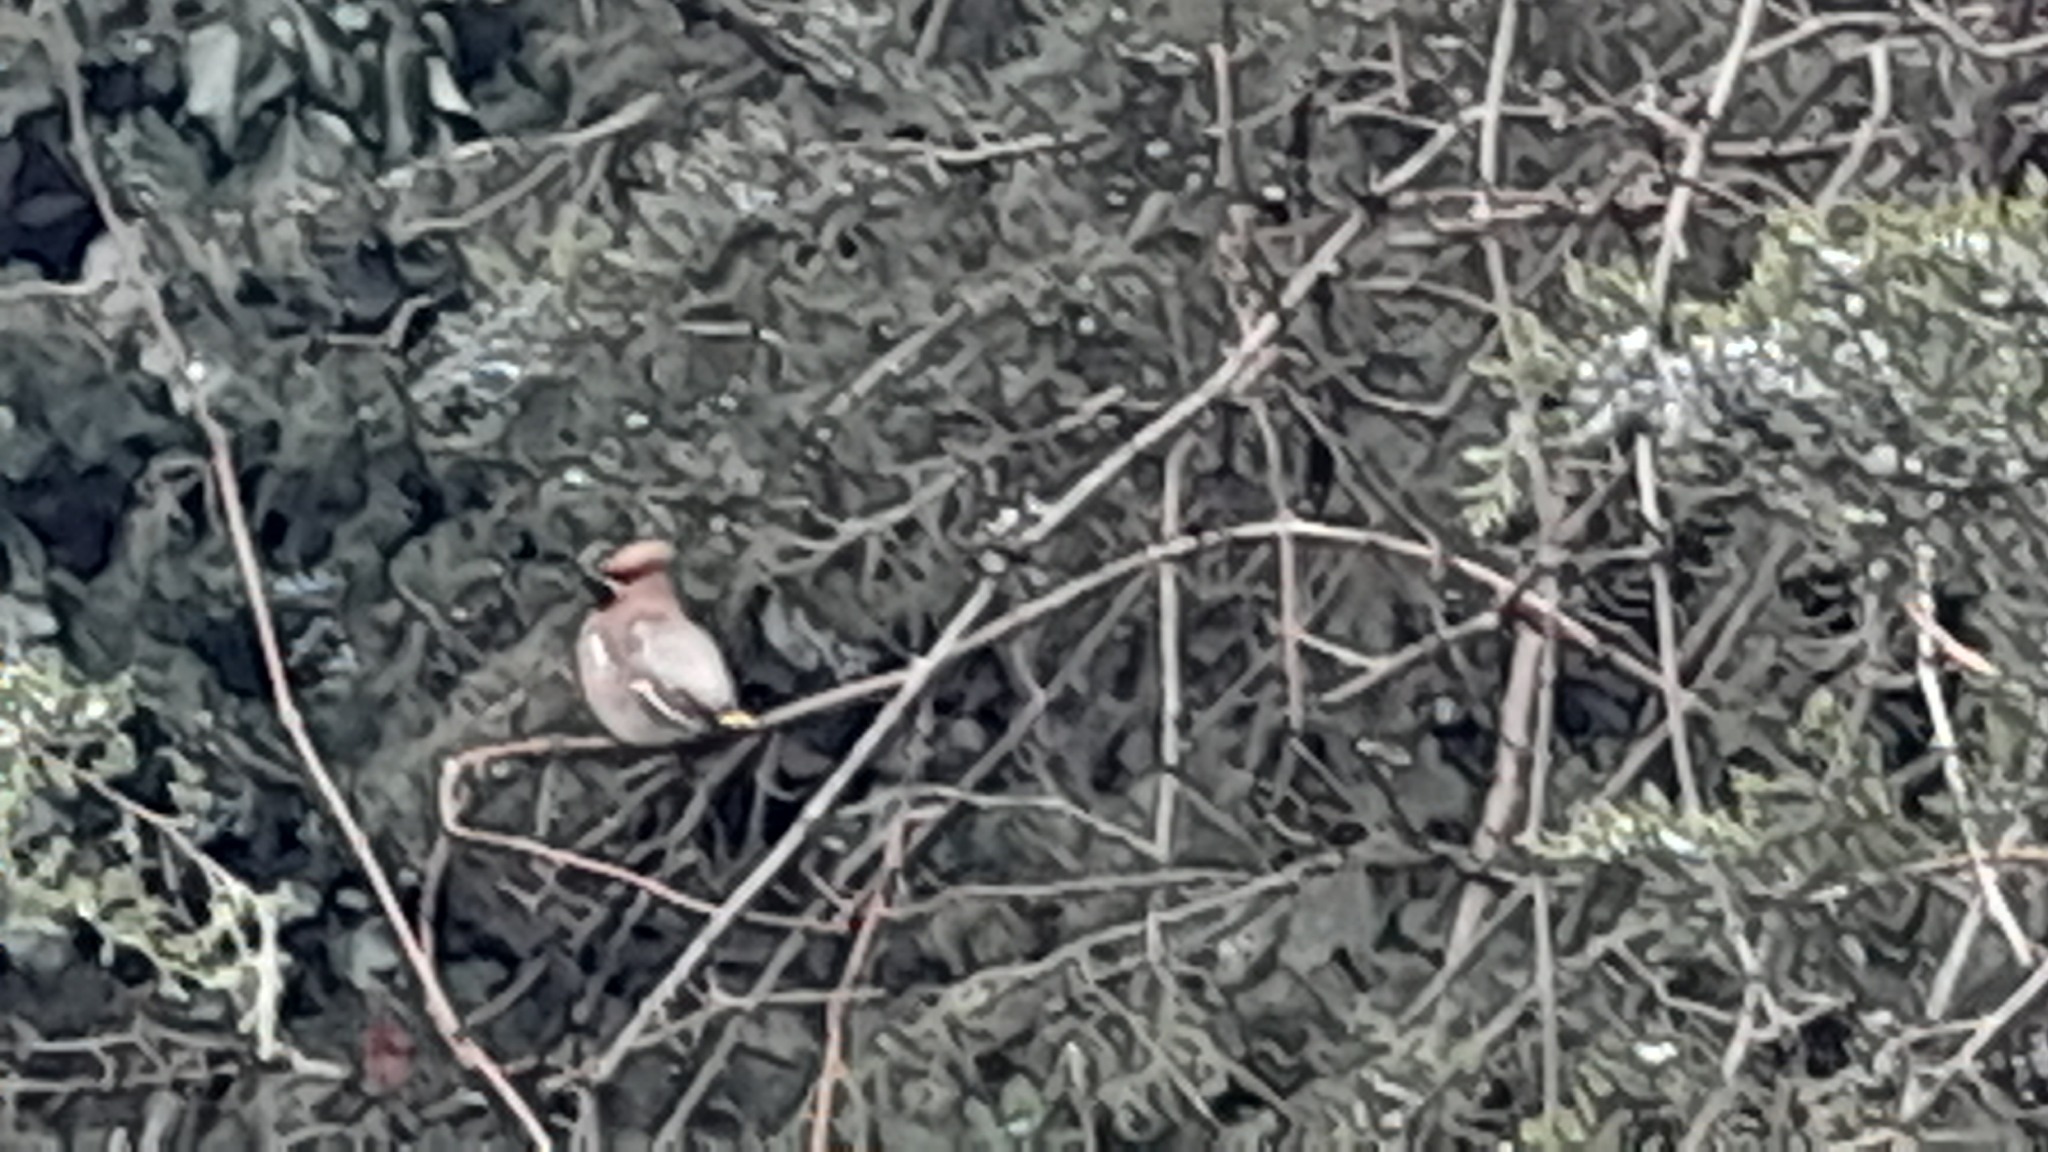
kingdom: Animalia
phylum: Chordata
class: Aves
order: Passeriformes
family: Bombycillidae
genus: Bombycilla
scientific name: Bombycilla garrulus
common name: Bohemian waxwing
